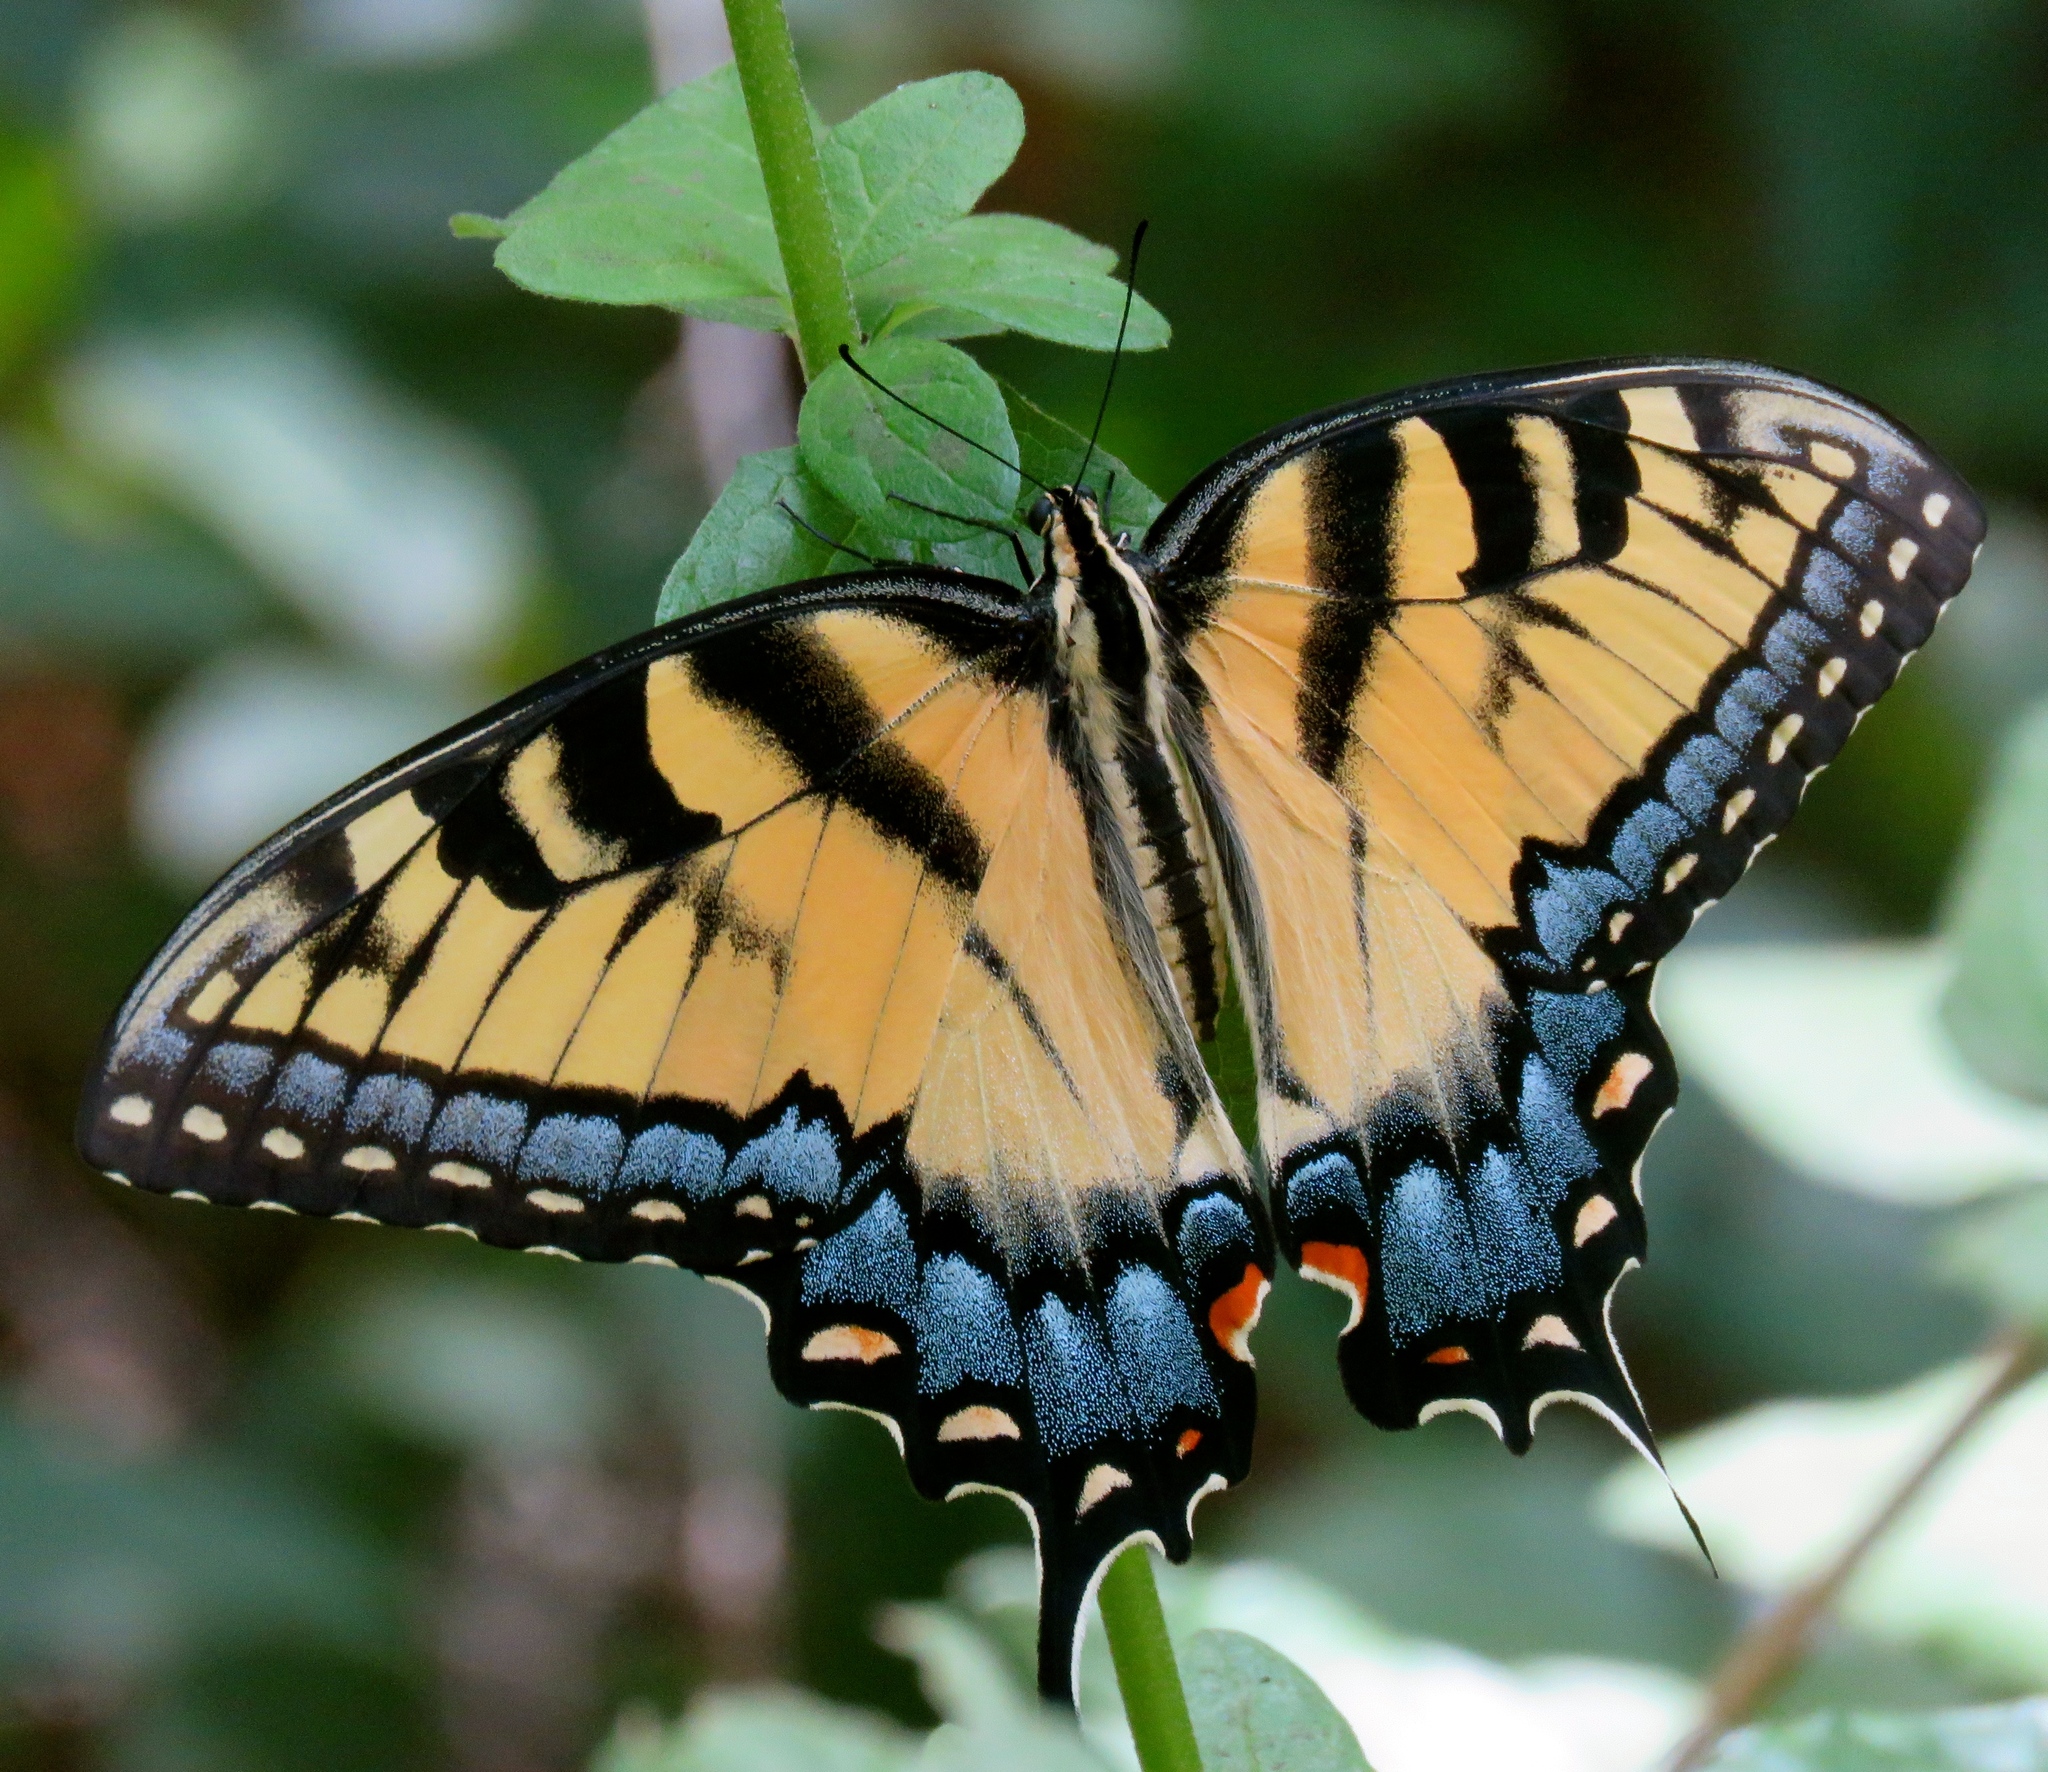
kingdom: Animalia
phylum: Arthropoda
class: Insecta
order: Lepidoptera
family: Papilionidae
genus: Papilio
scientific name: Papilio glaucus
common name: Tiger swallowtail
